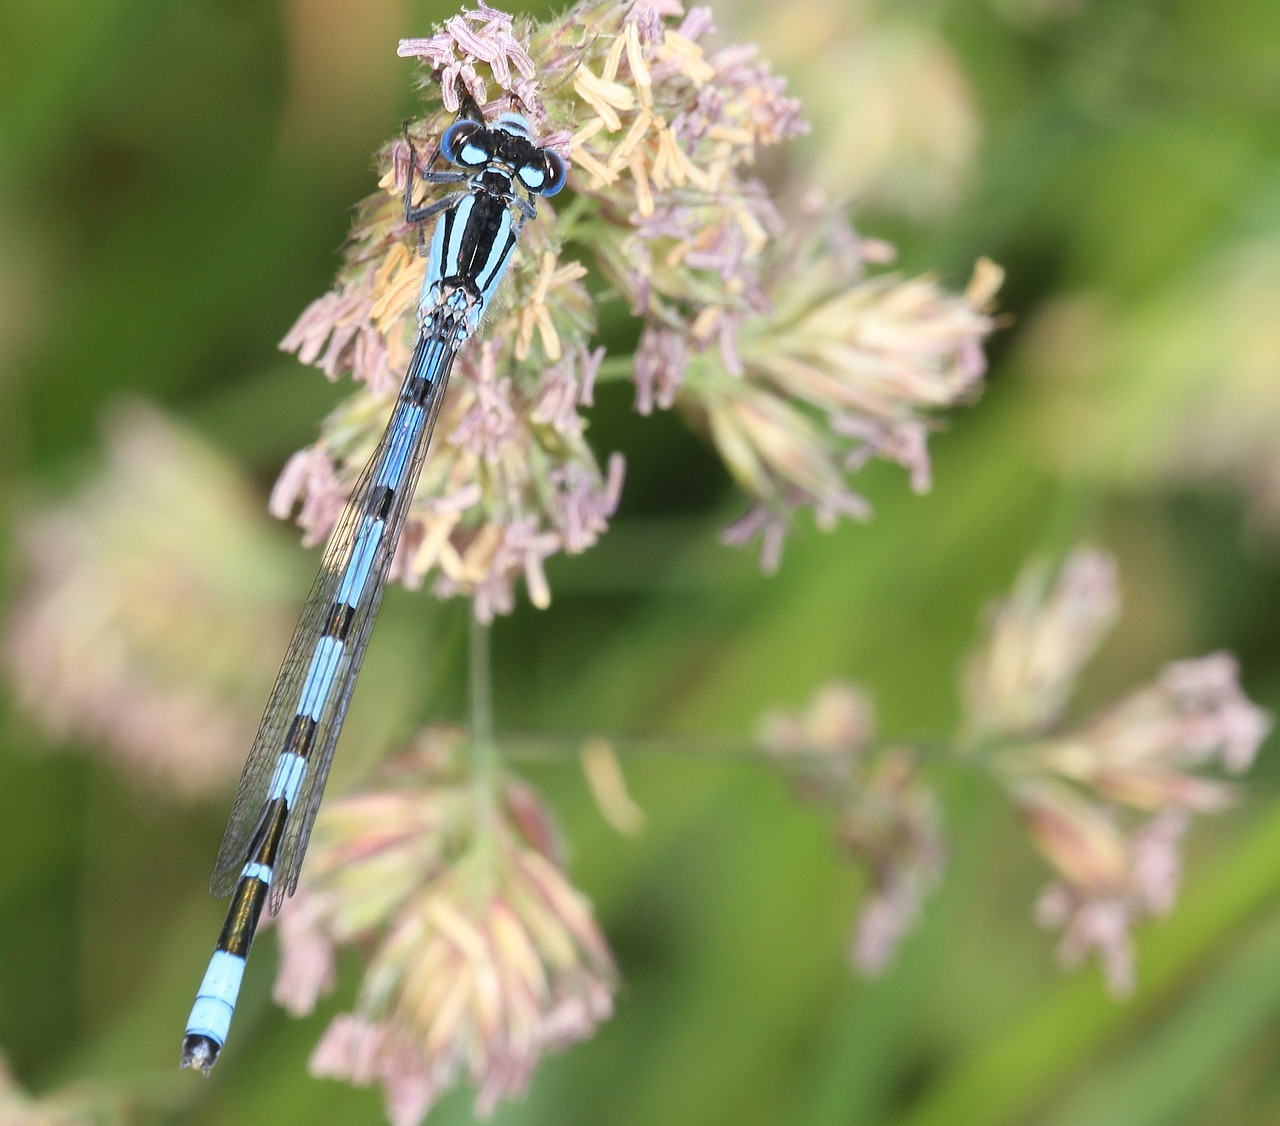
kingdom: Animalia
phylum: Arthropoda
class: Insecta
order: Odonata
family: Coenagrionidae
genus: Enallagma
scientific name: Enallagma cyathigerum
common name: Common blue damselfly
